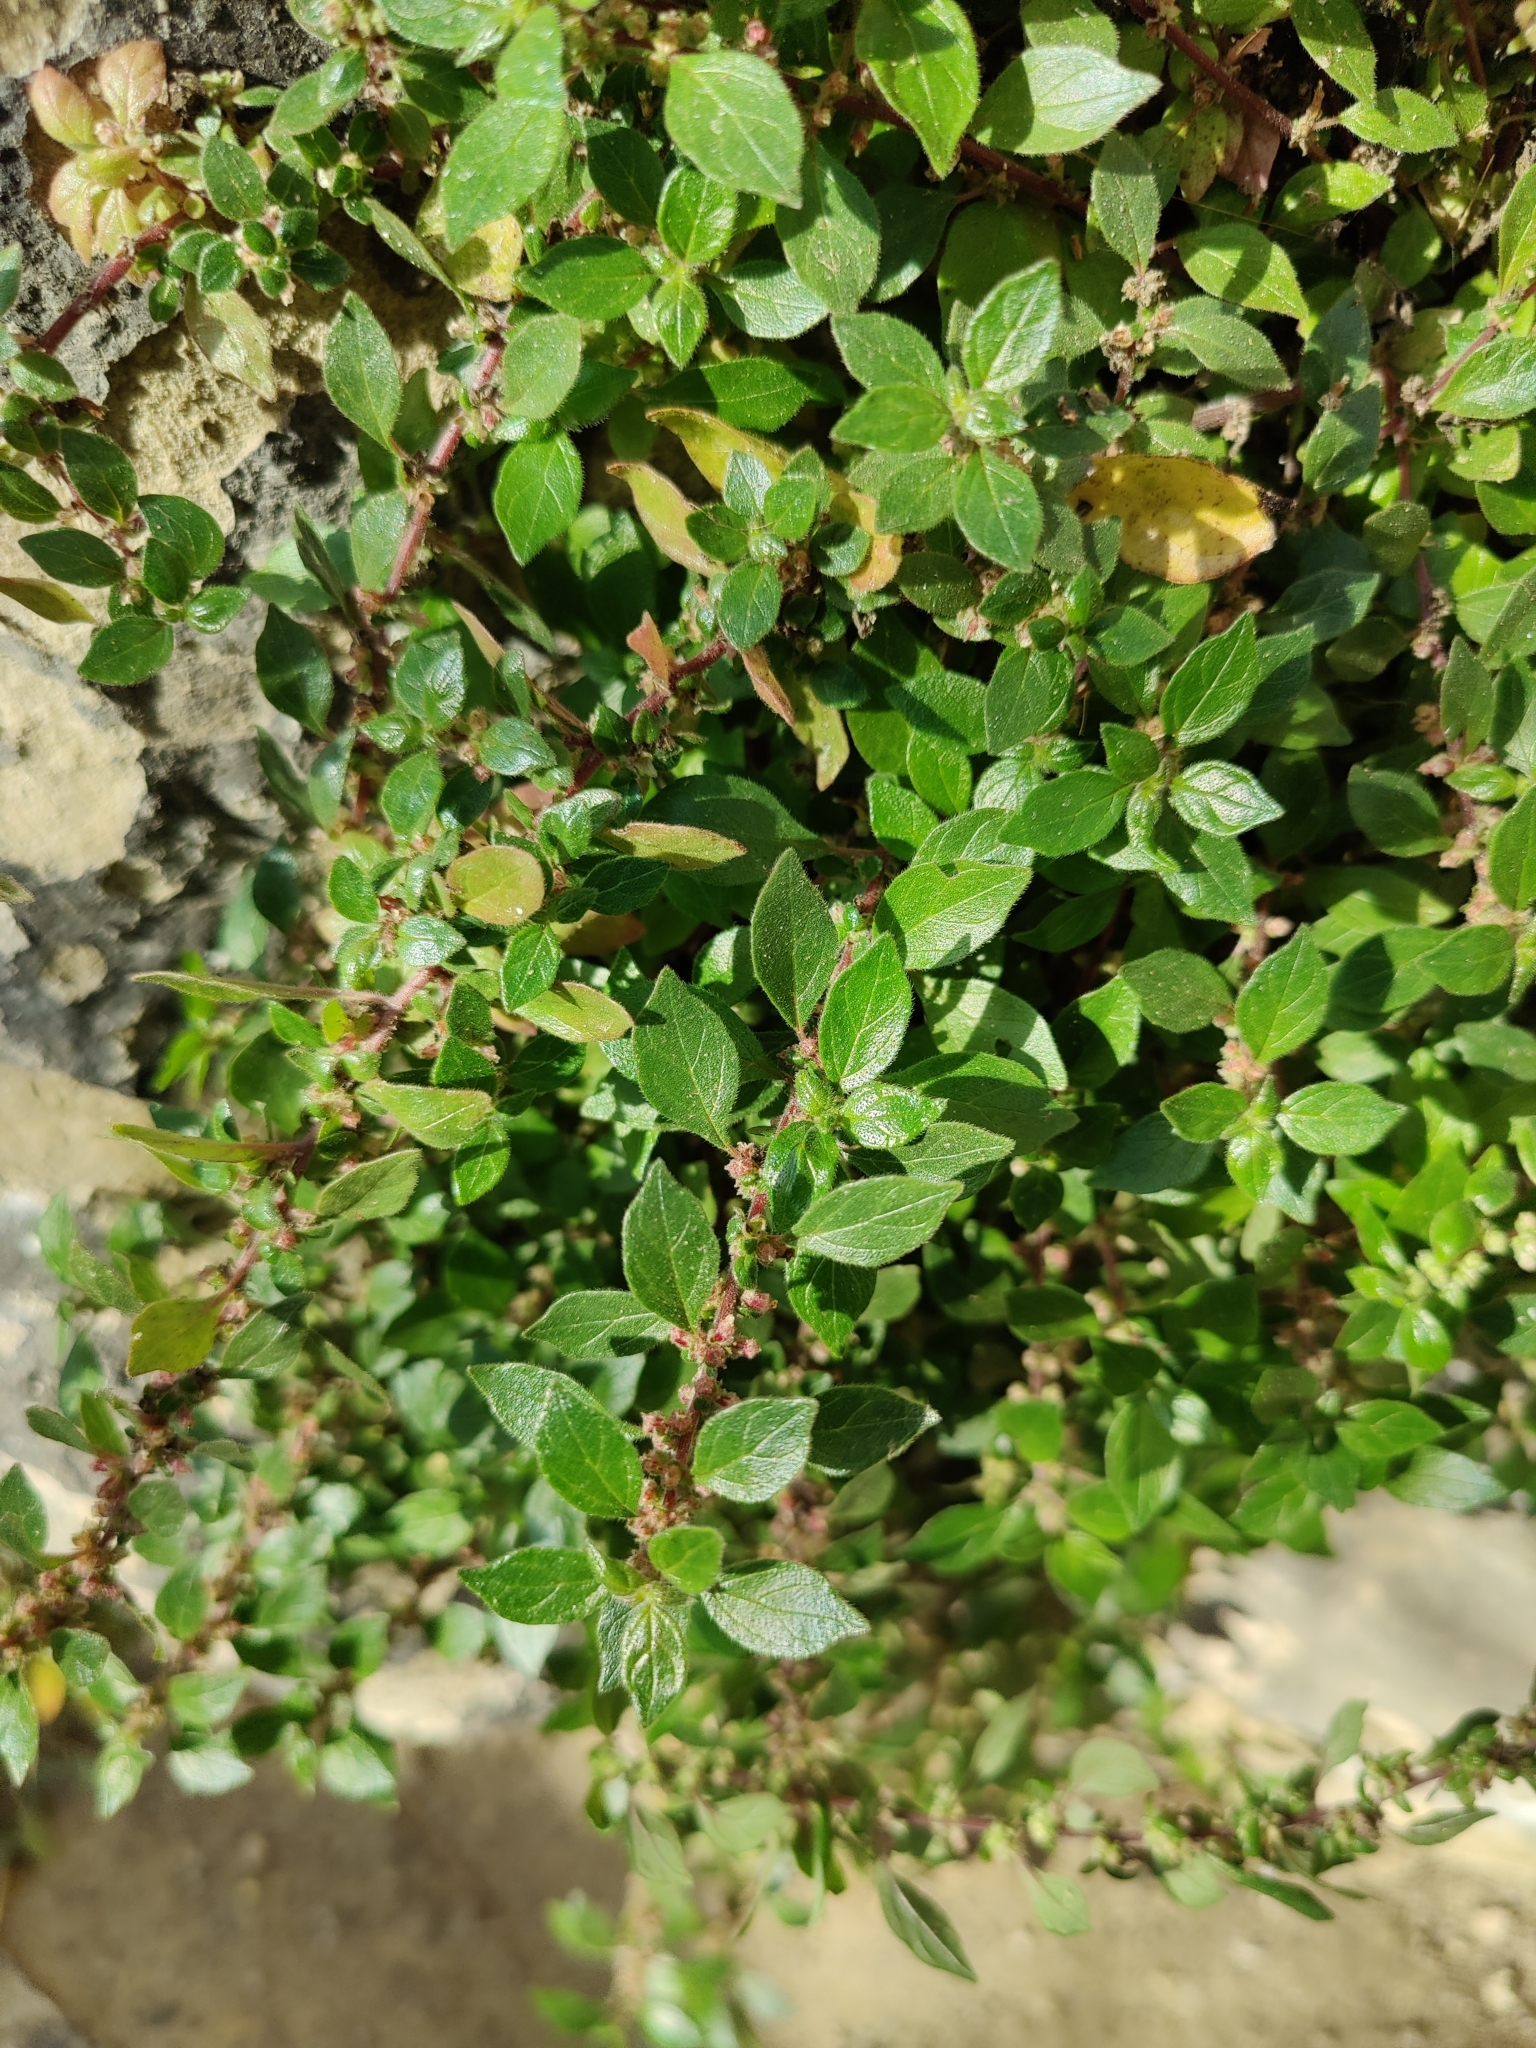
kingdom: Plantae
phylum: Tracheophyta
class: Magnoliopsida
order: Rosales
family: Urticaceae
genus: Parietaria
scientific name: Parietaria judaica
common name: Pellitory-of-the-wall
